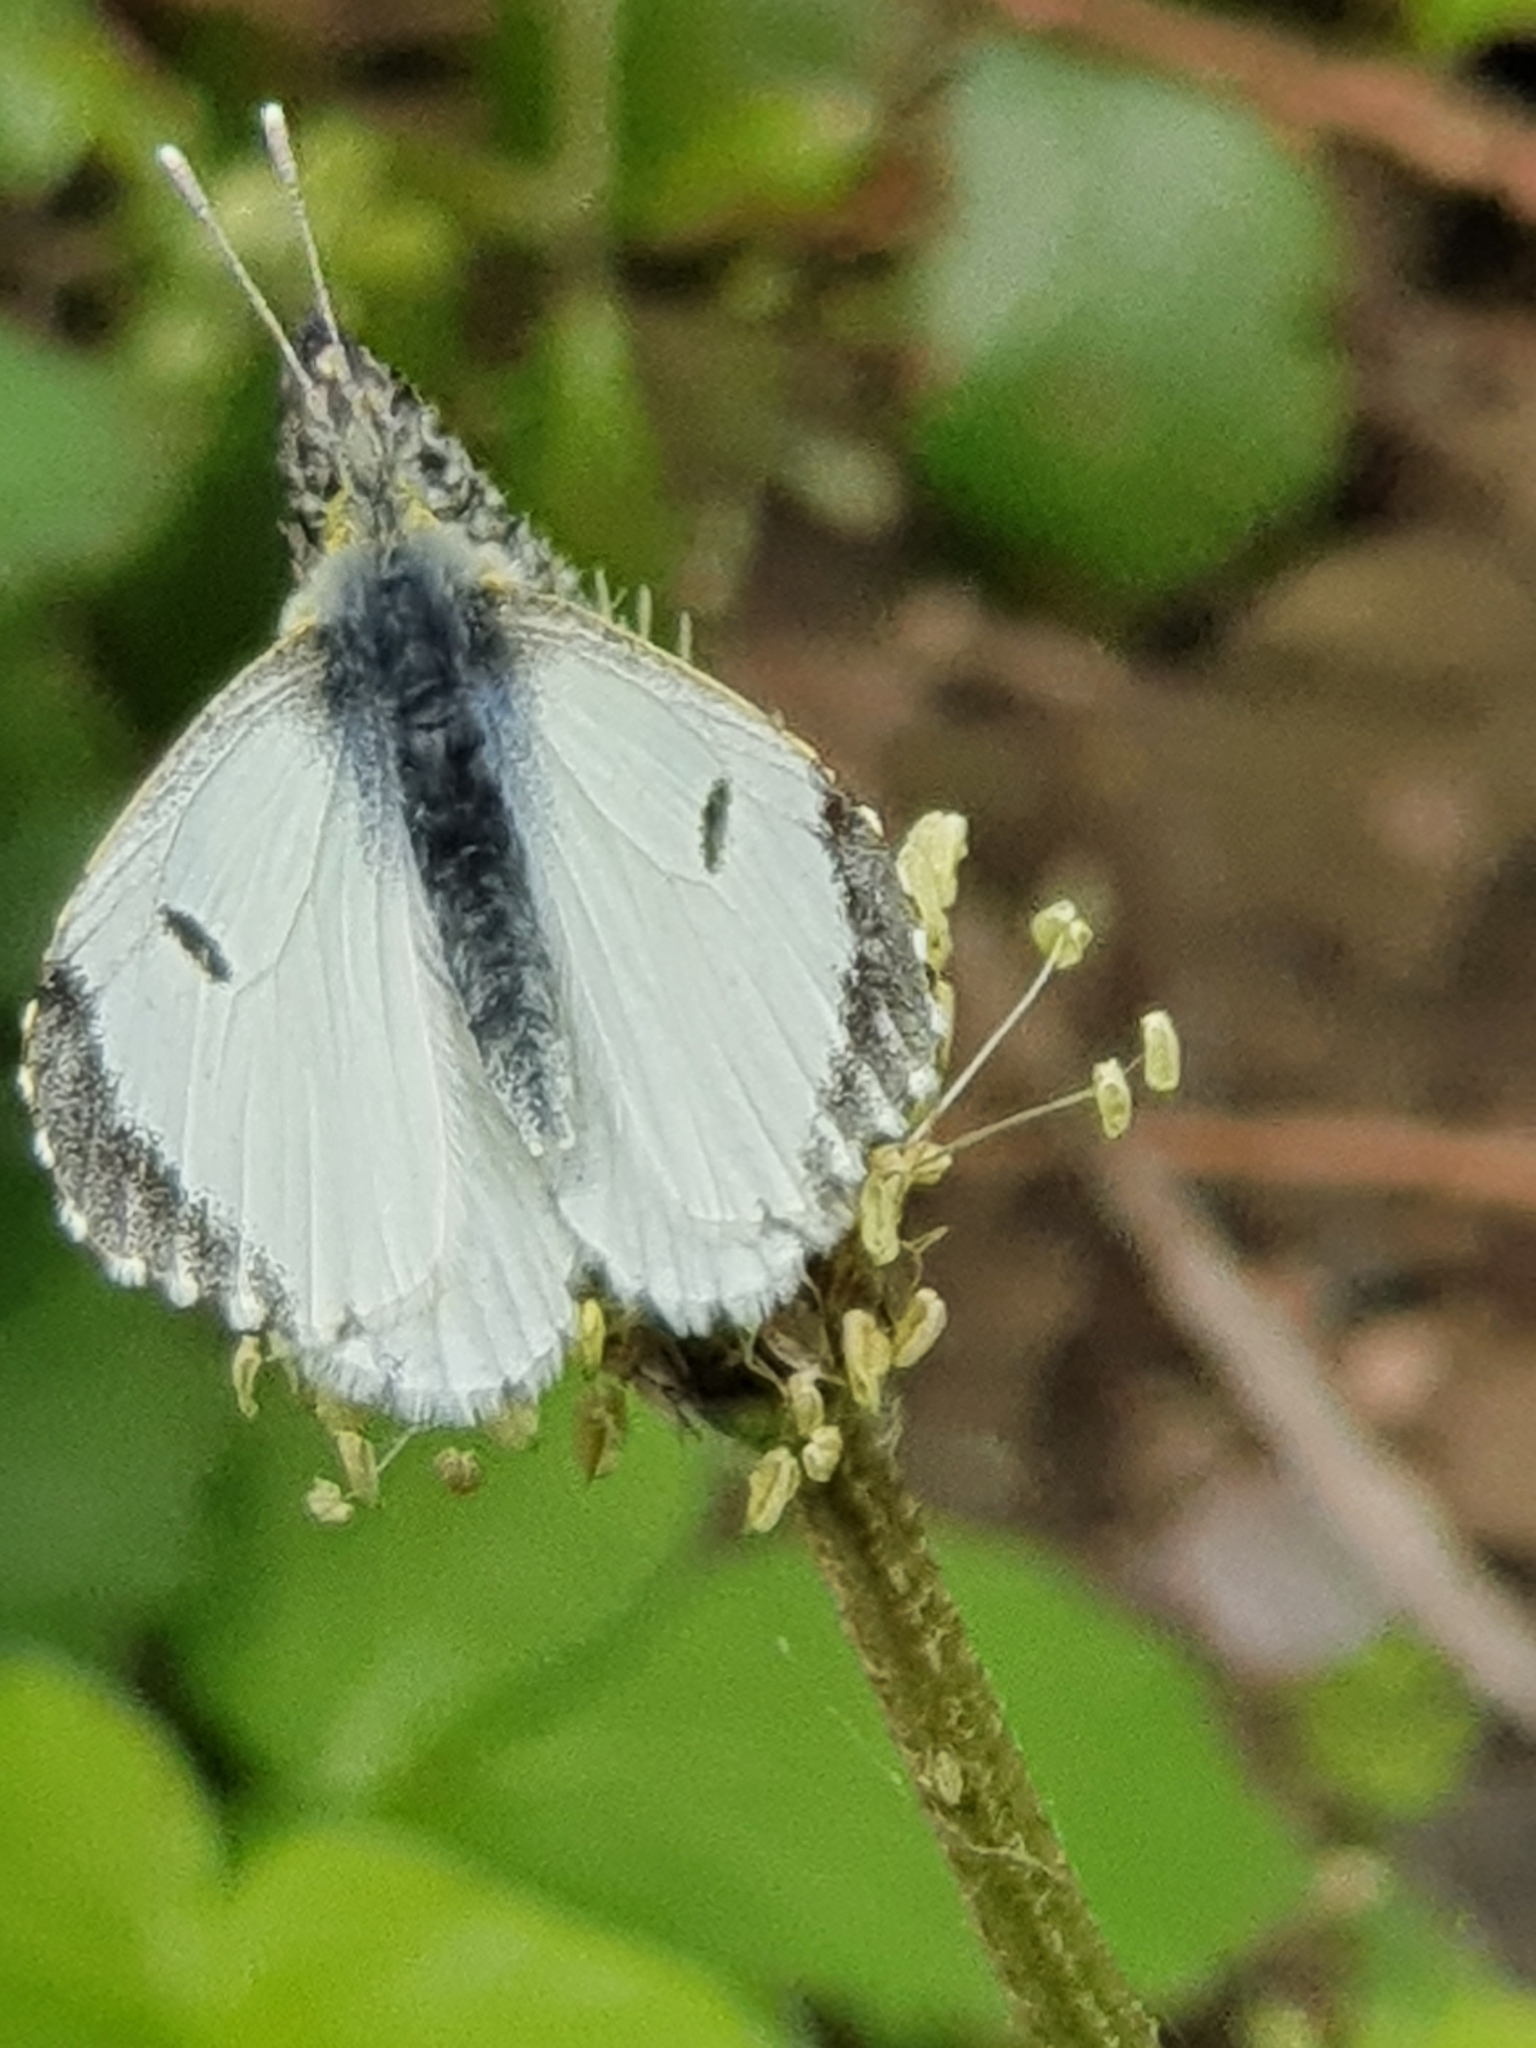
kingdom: Animalia
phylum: Arthropoda
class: Insecta
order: Lepidoptera
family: Pieridae
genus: Anthocharis
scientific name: Anthocharis cardamines
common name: Orange-tip
